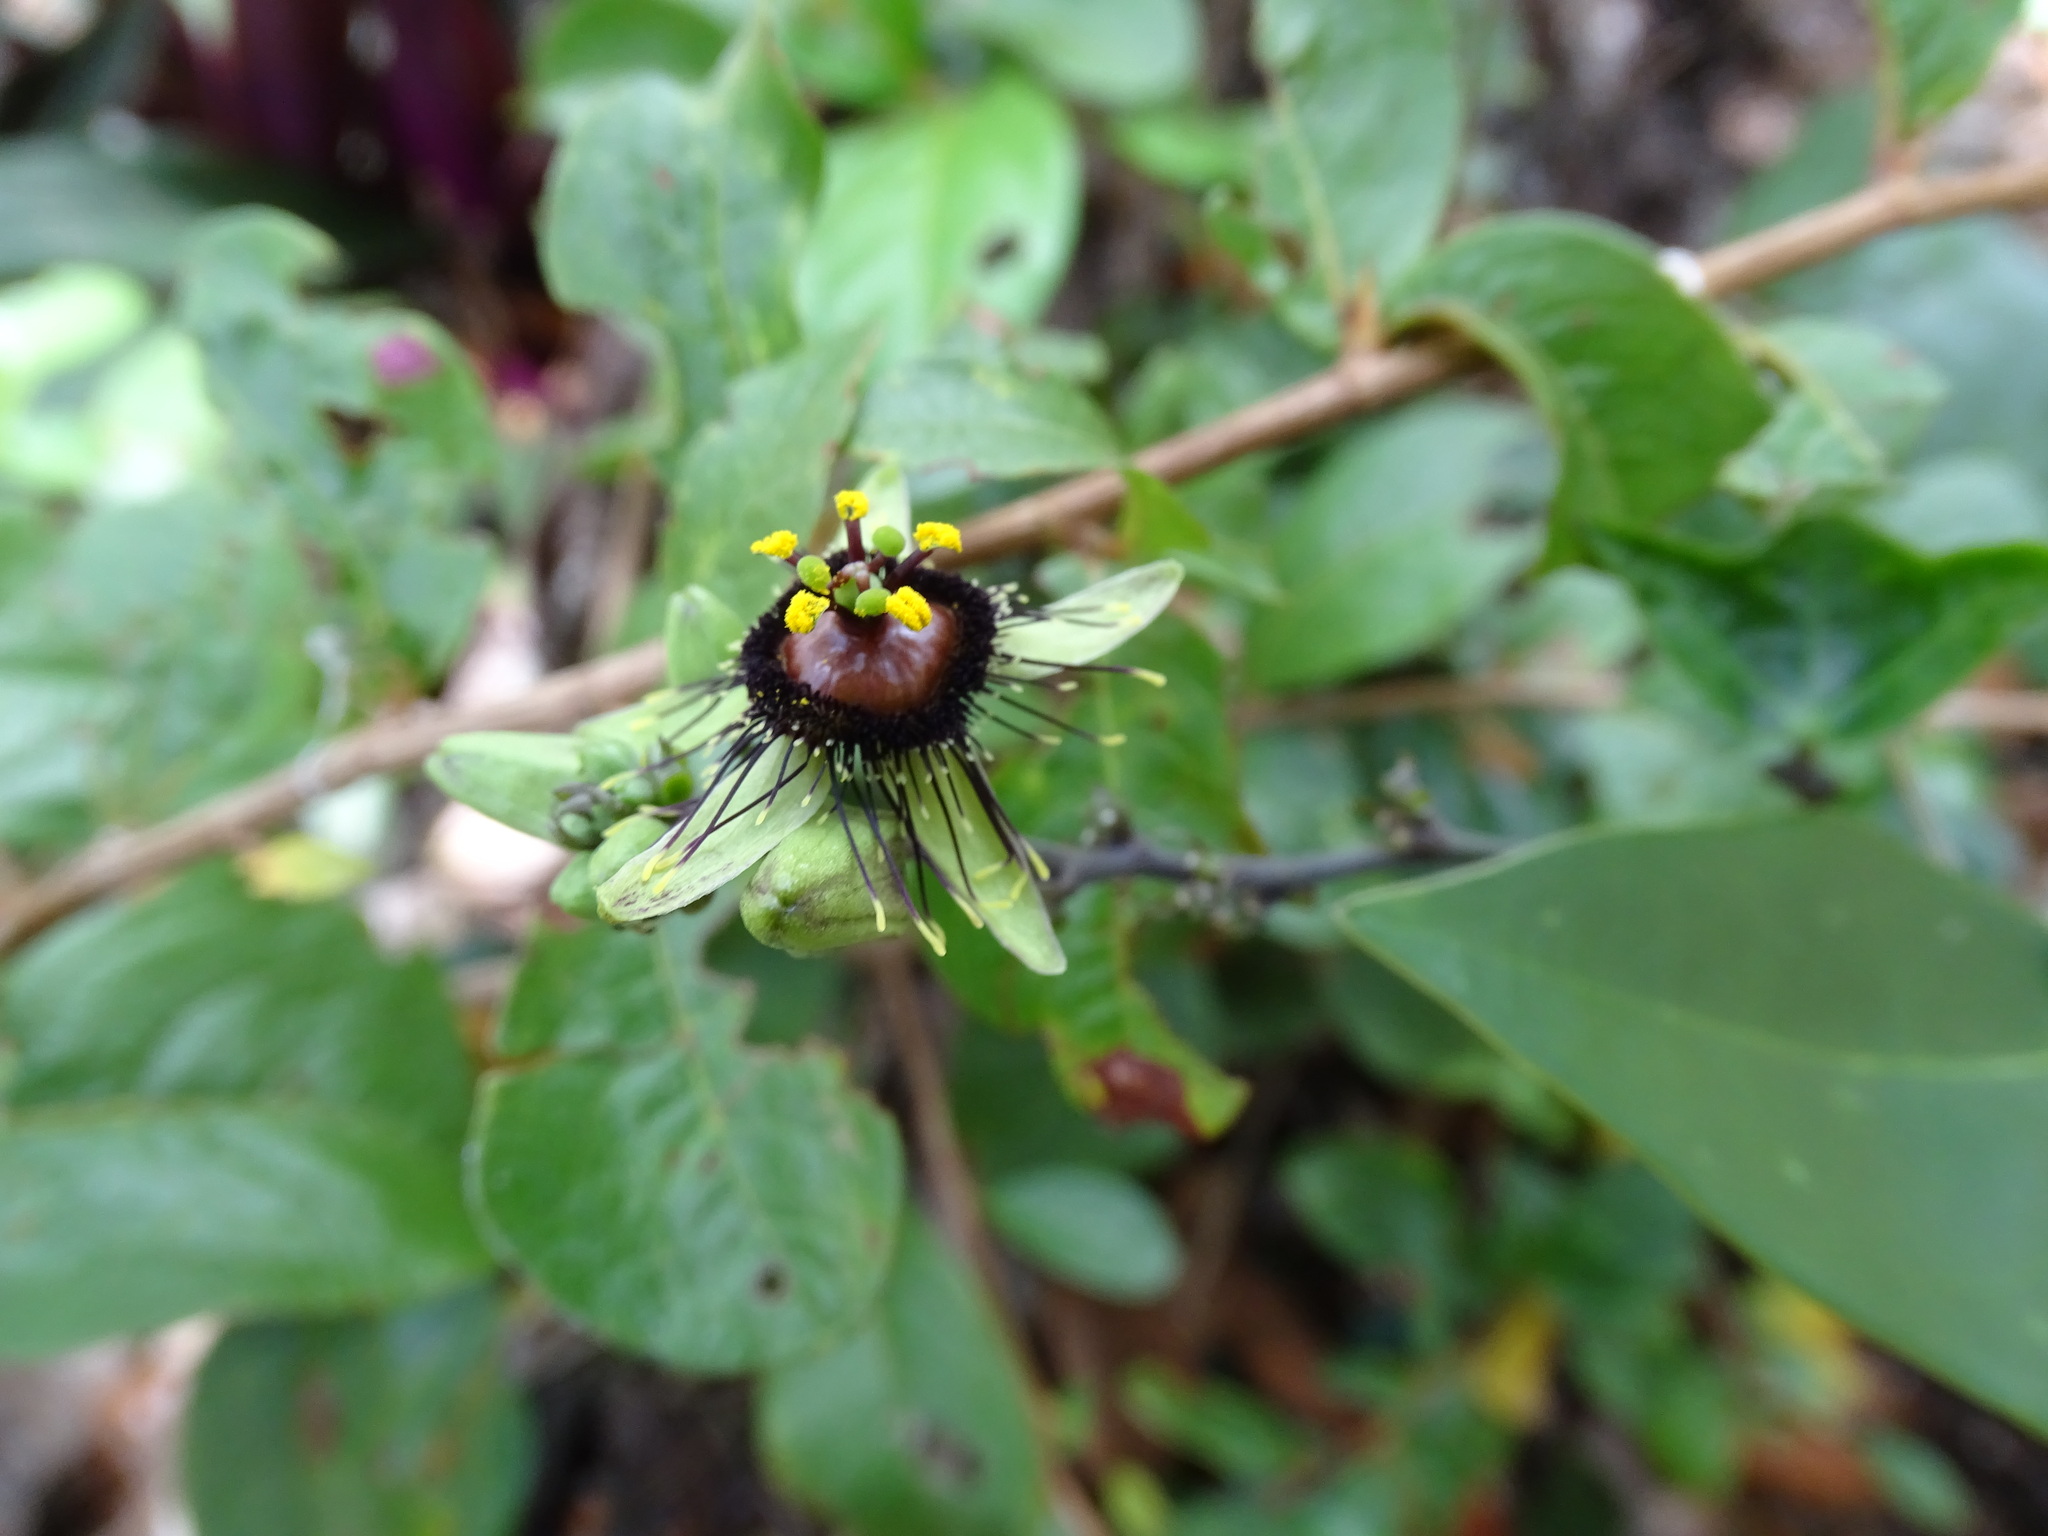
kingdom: Plantae
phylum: Tracheophyta
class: Magnoliopsida
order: Malpighiales
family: Passifloraceae
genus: Passiflora
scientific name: Passiflora itzensis
